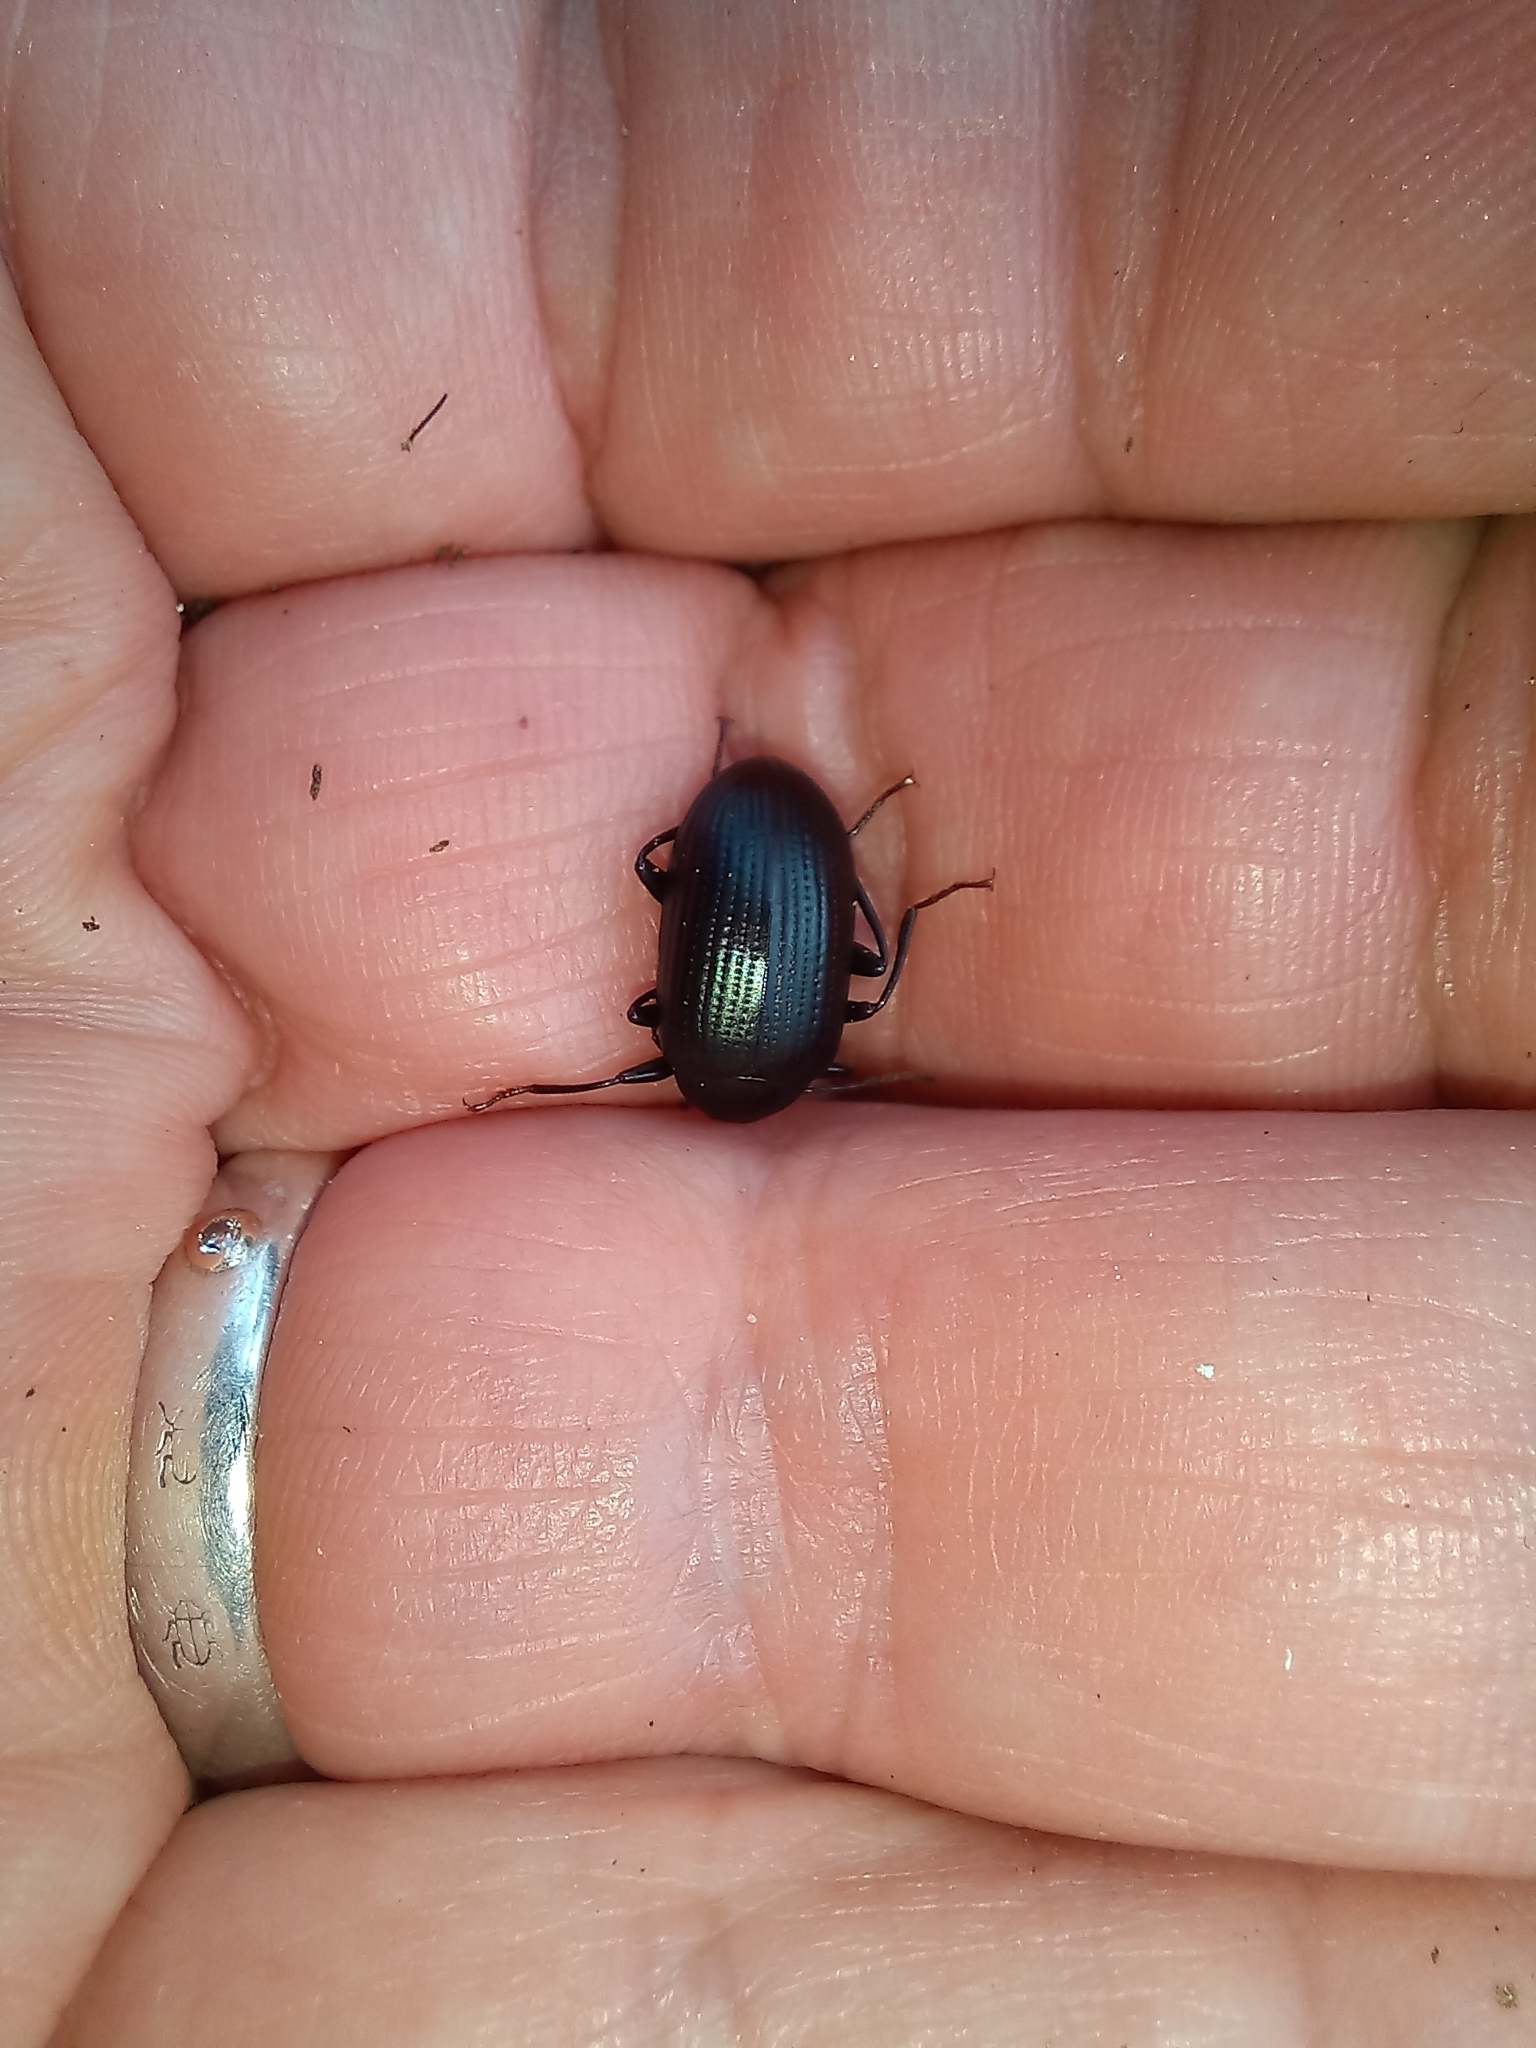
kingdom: Animalia
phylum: Arthropoda
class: Insecta
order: Coleoptera
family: Tenebrionidae
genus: Amarygmus
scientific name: Amarygmus
